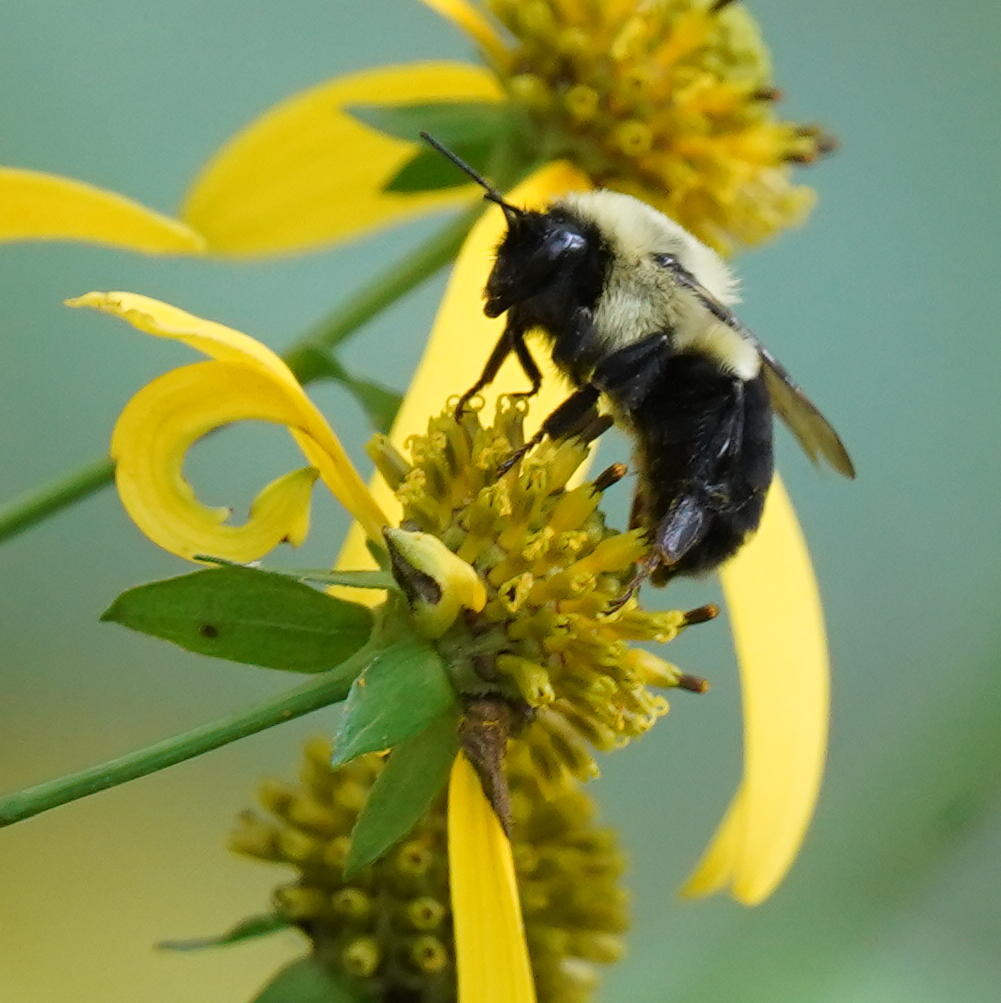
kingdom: Animalia
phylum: Arthropoda
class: Insecta
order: Hymenoptera
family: Apidae
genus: Bombus
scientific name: Bombus impatiens
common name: Common eastern bumble bee
